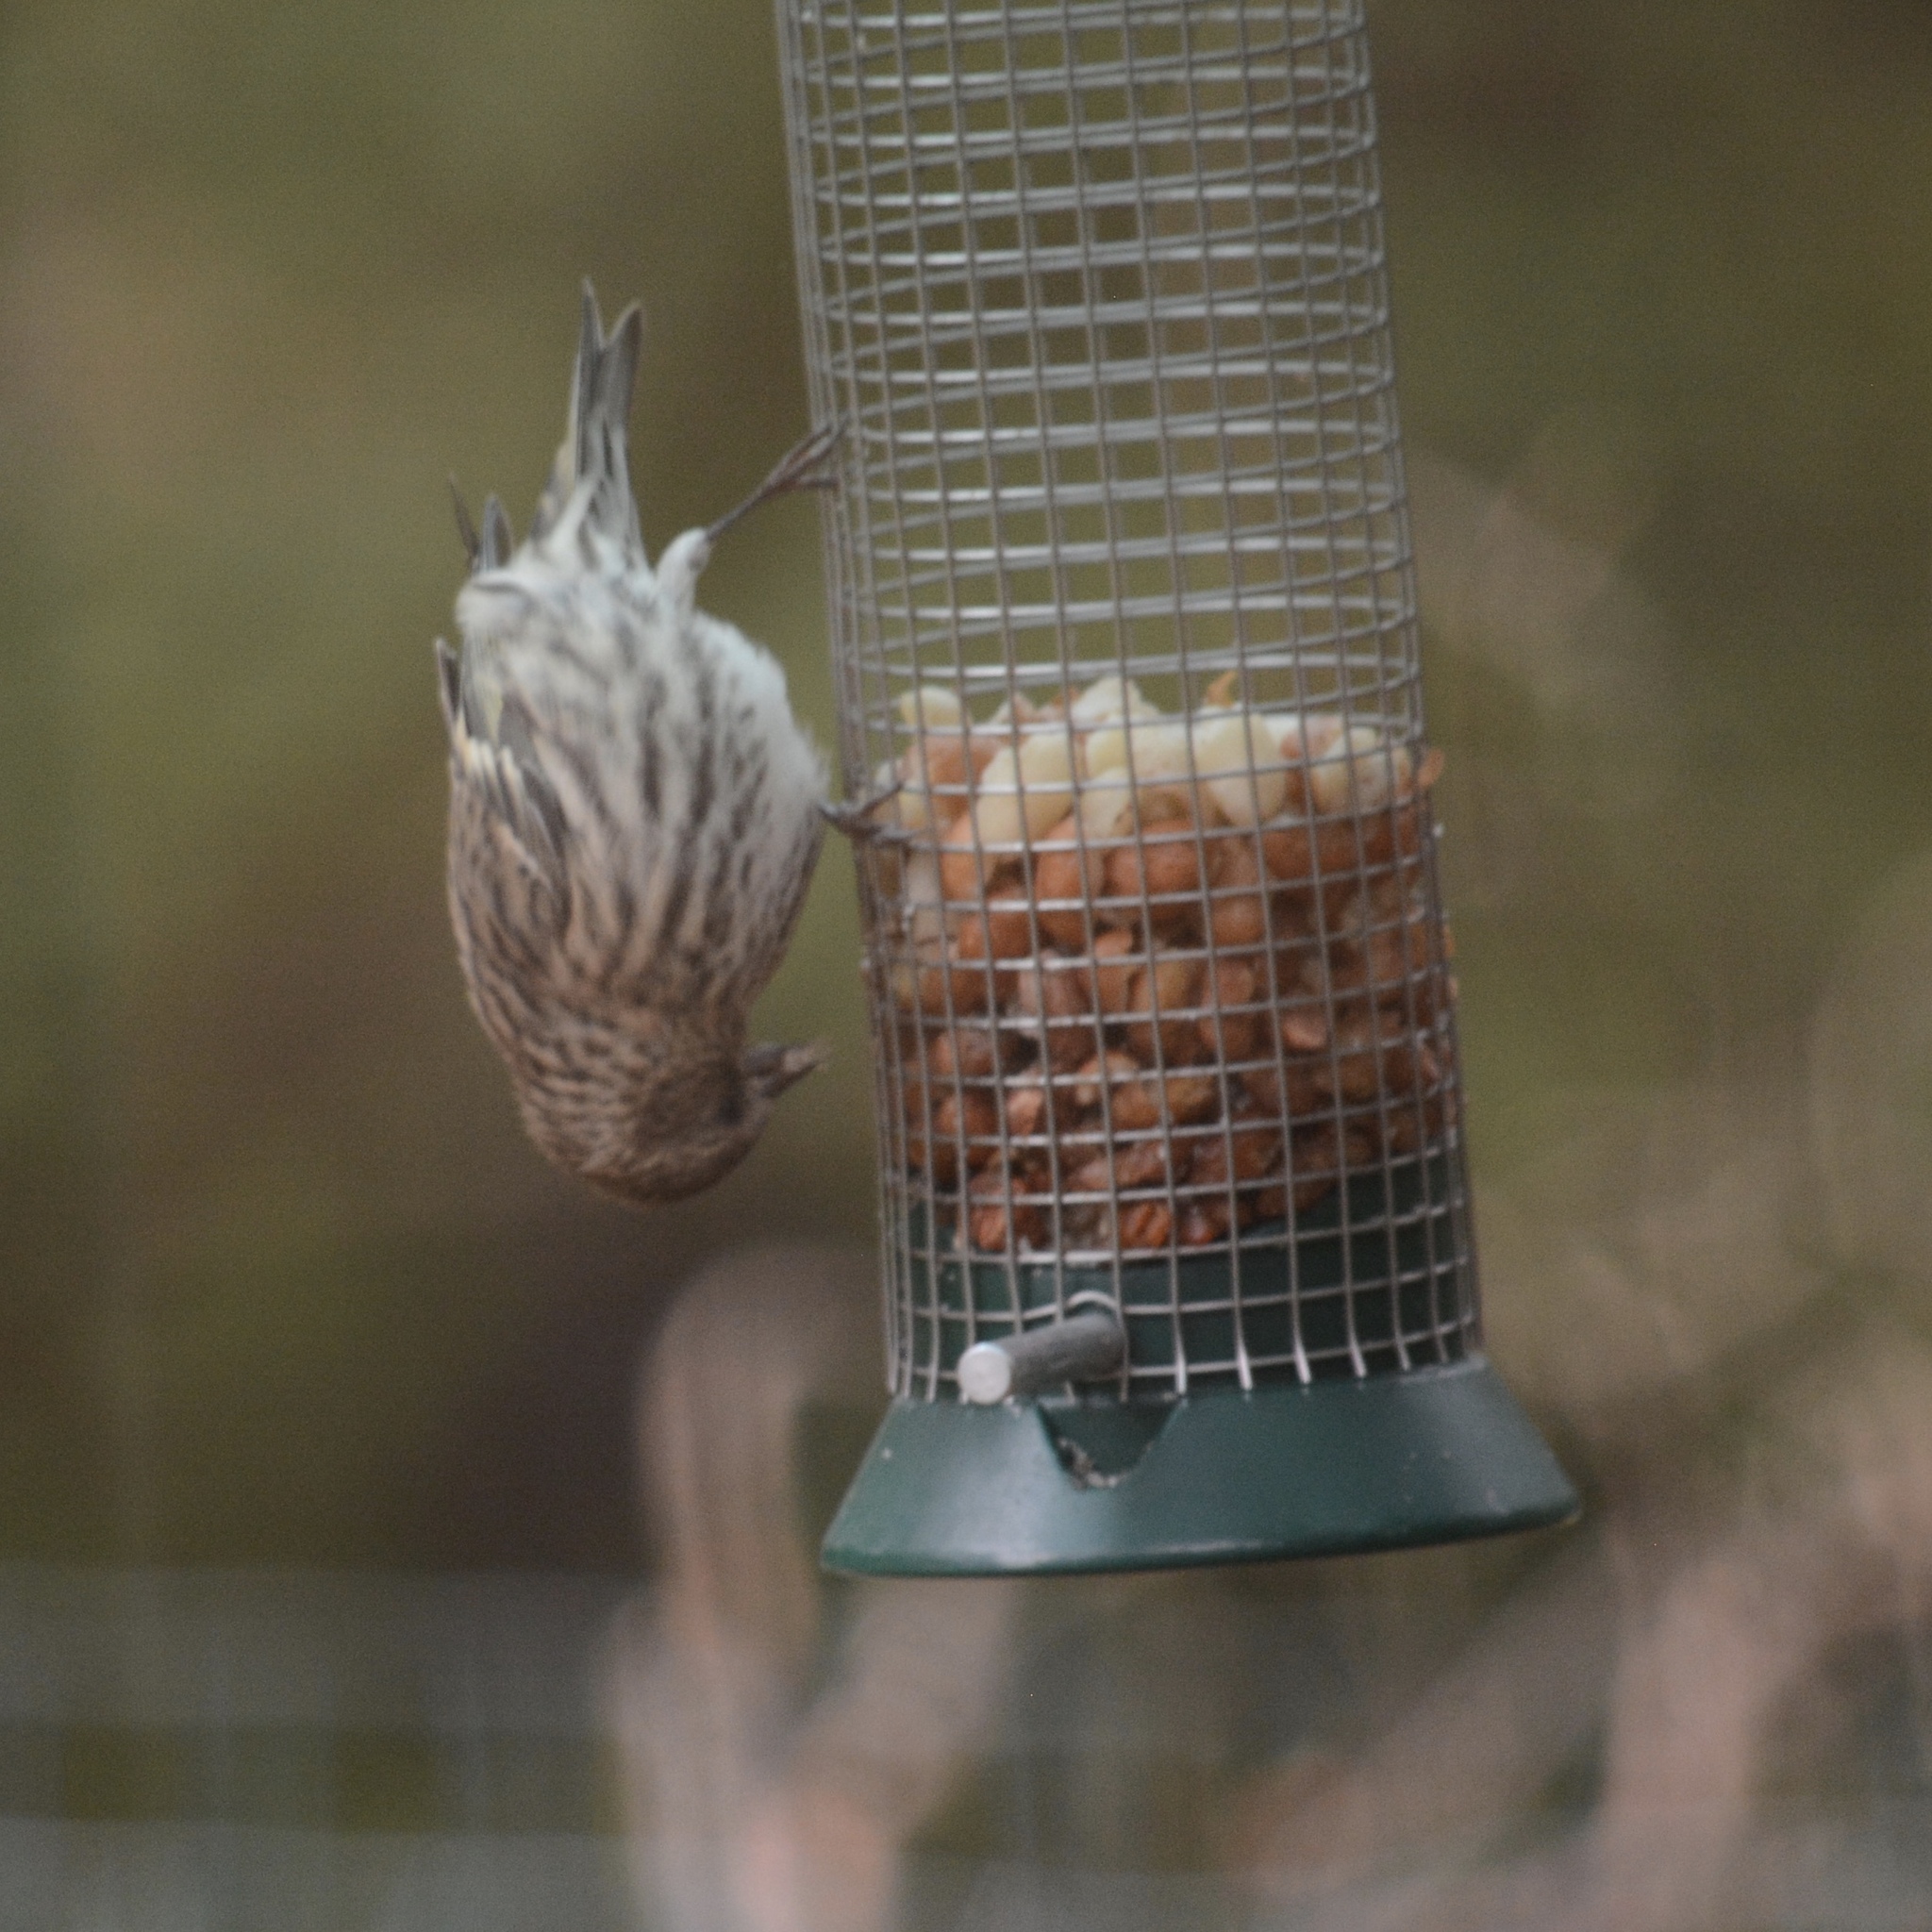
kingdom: Animalia
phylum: Chordata
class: Aves
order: Passeriformes
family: Fringillidae
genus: Spinus
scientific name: Spinus pinus
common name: Pine siskin
